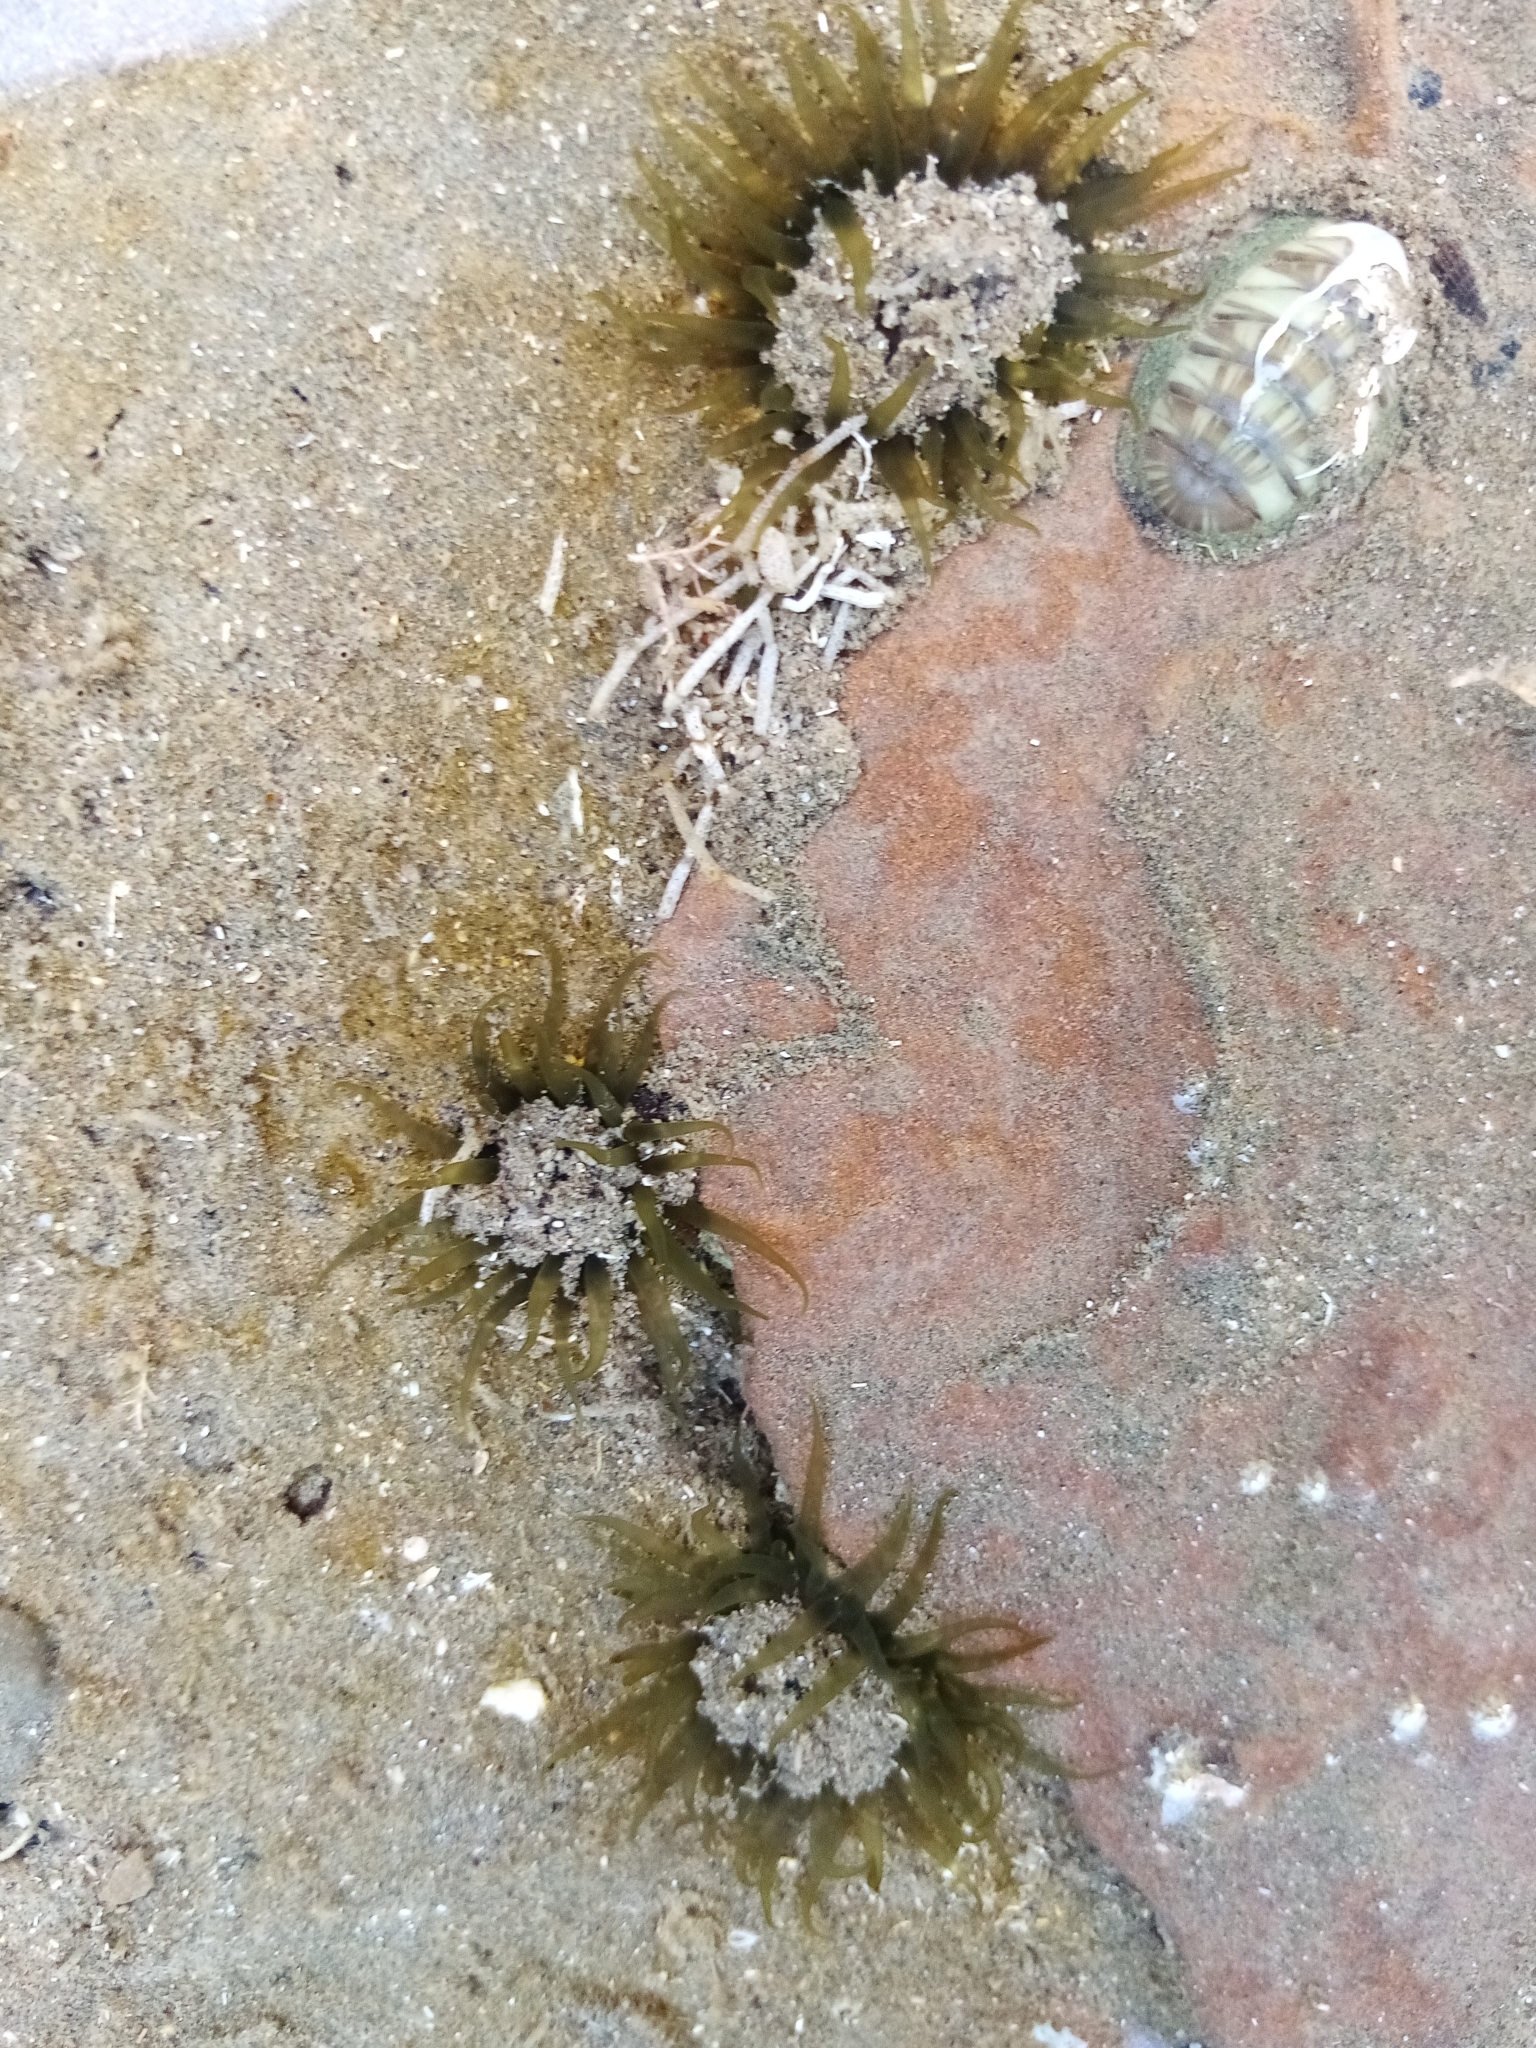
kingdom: Animalia
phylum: Cnidaria
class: Anthozoa
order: Actiniaria
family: Actiniidae
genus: Isactinia
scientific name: Isactinia olivacea
